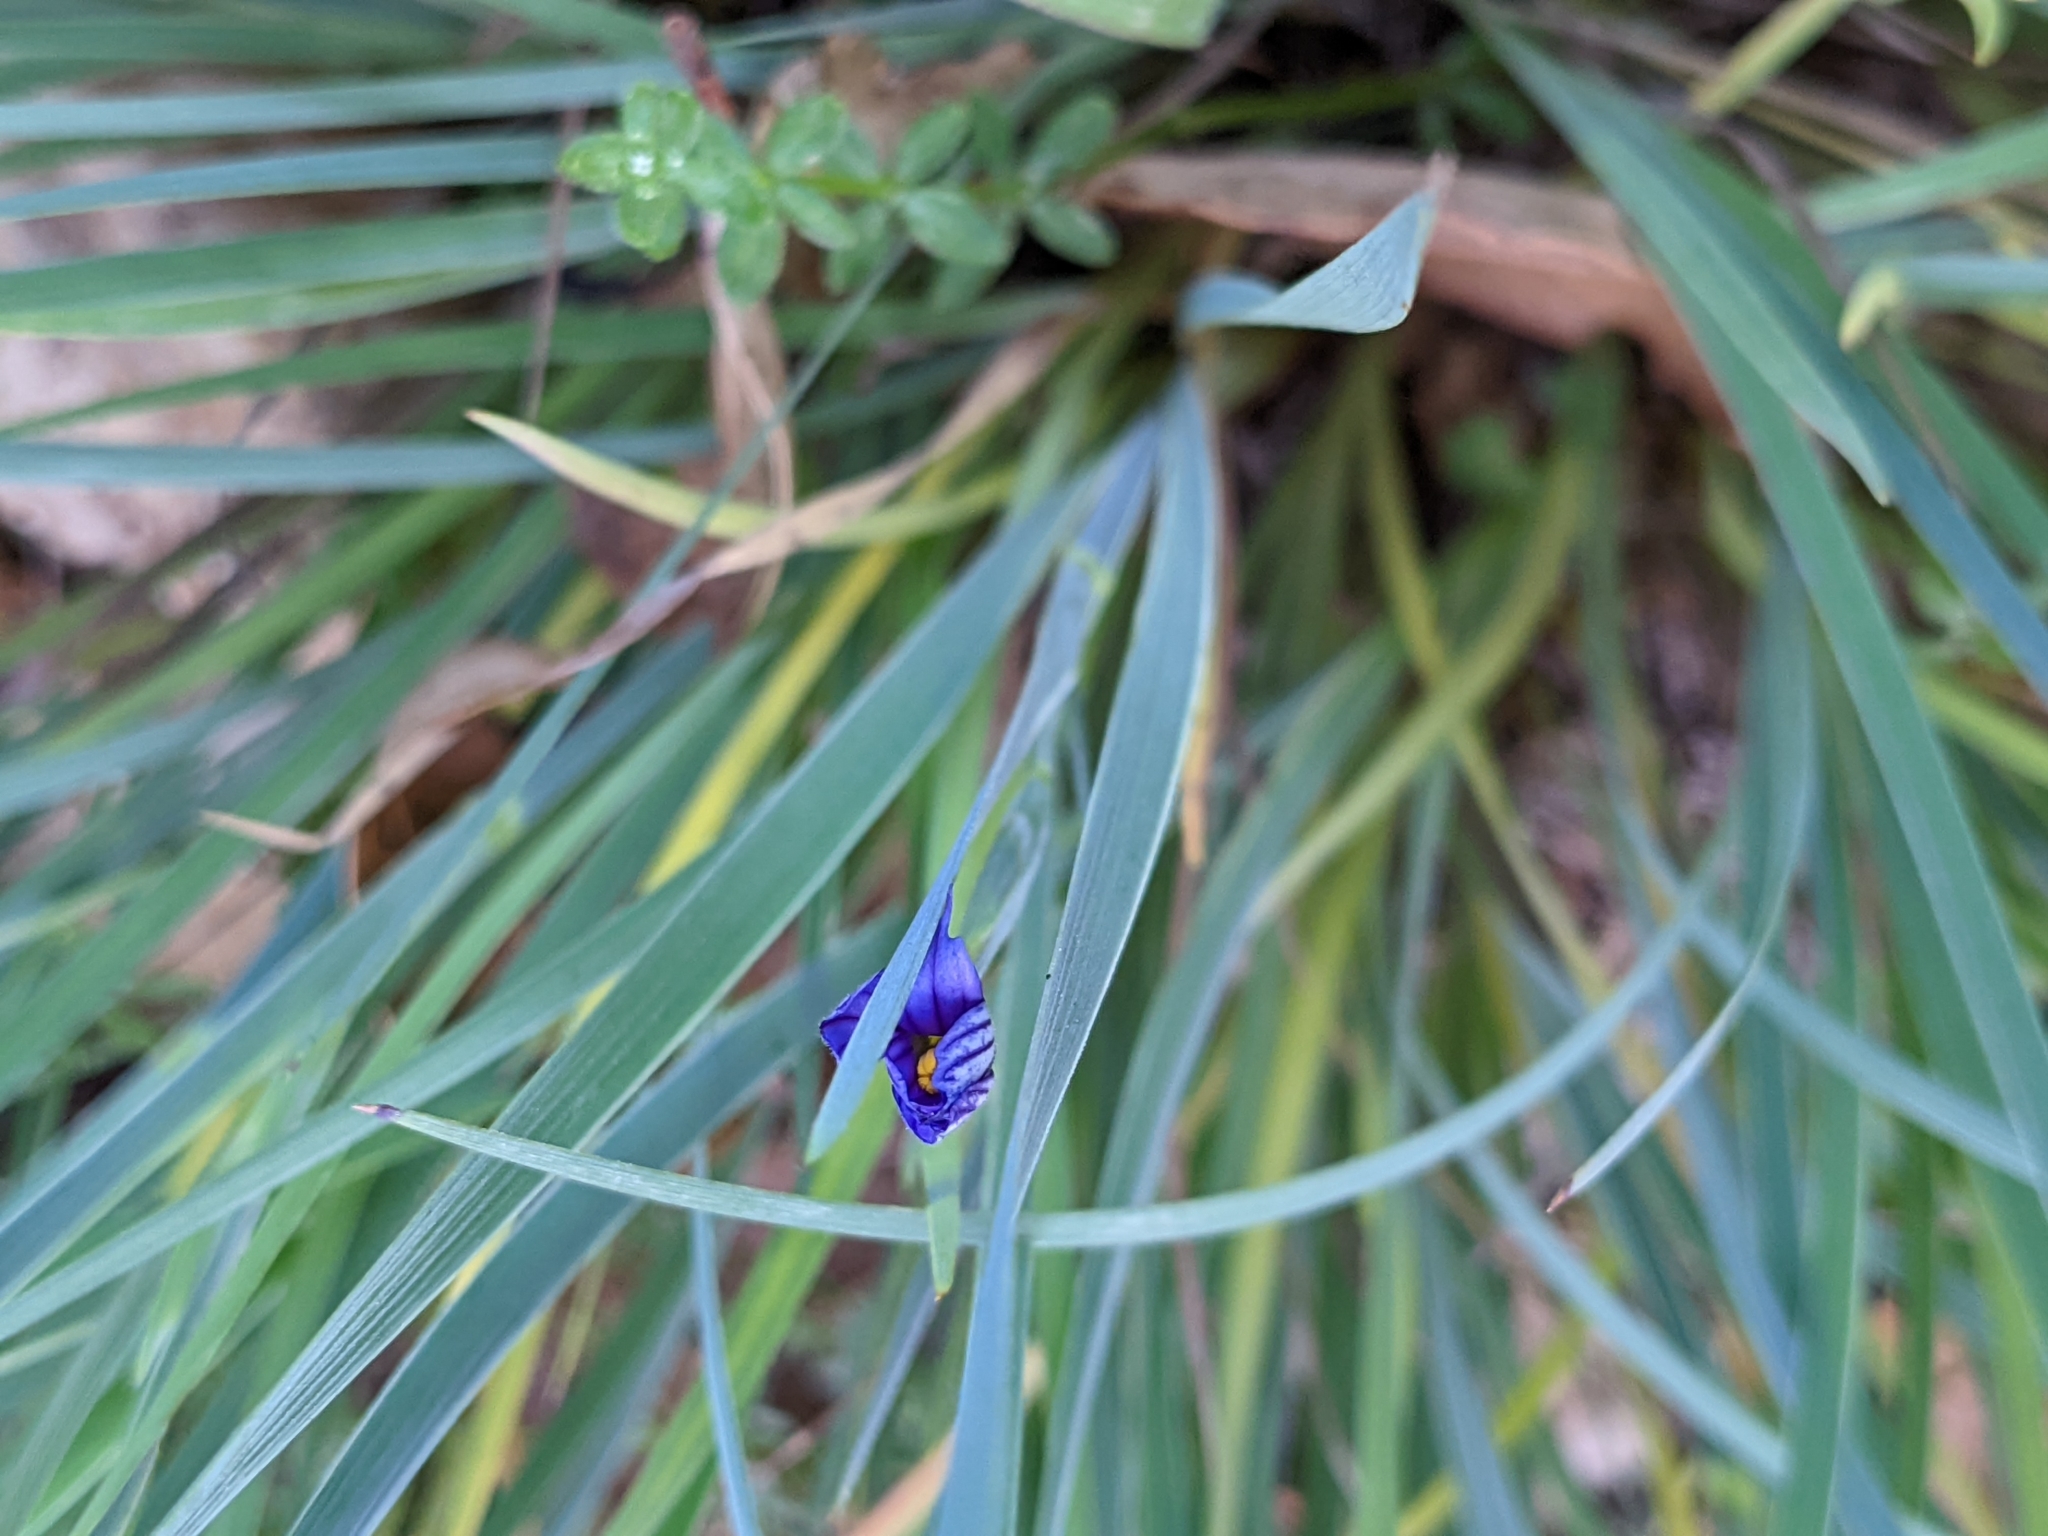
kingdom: Plantae
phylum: Tracheophyta
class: Liliopsida
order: Asparagales
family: Iridaceae
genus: Sisyrinchium
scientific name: Sisyrinchium bellum
